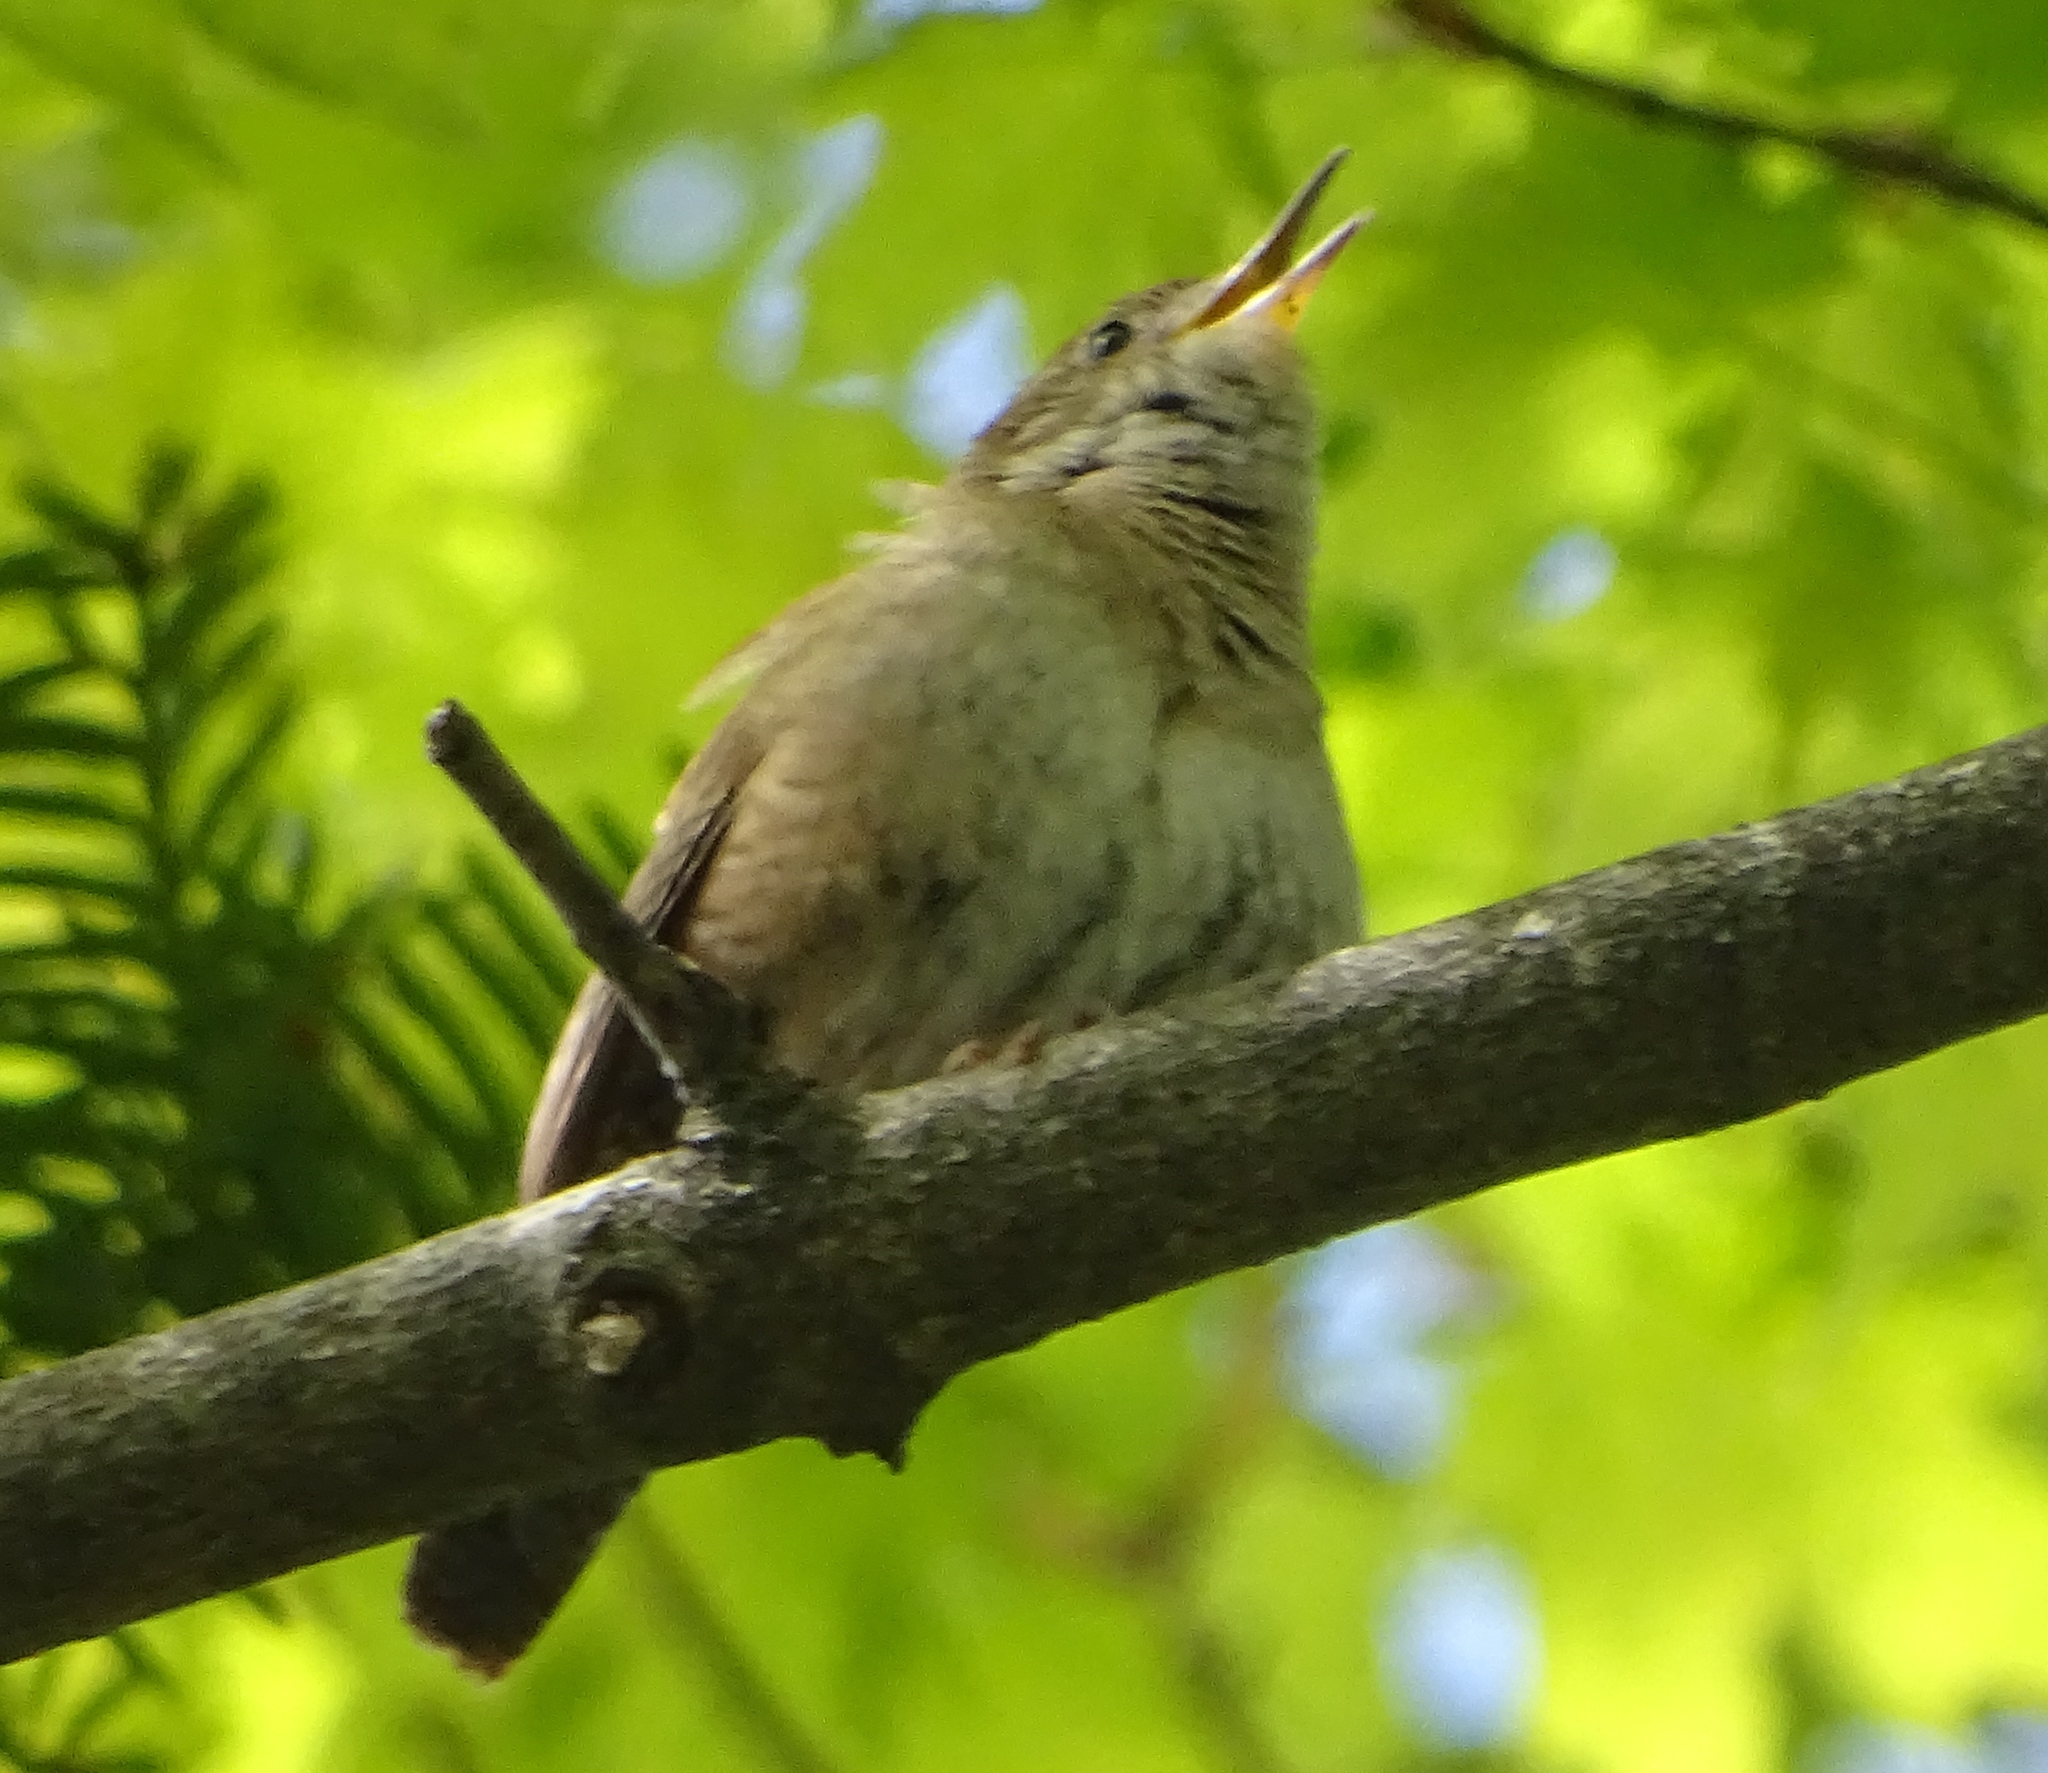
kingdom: Animalia
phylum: Chordata
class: Aves
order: Passeriformes
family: Troglodytidae
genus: Troglodytes
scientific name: Troglodytes aedon
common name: House wren
